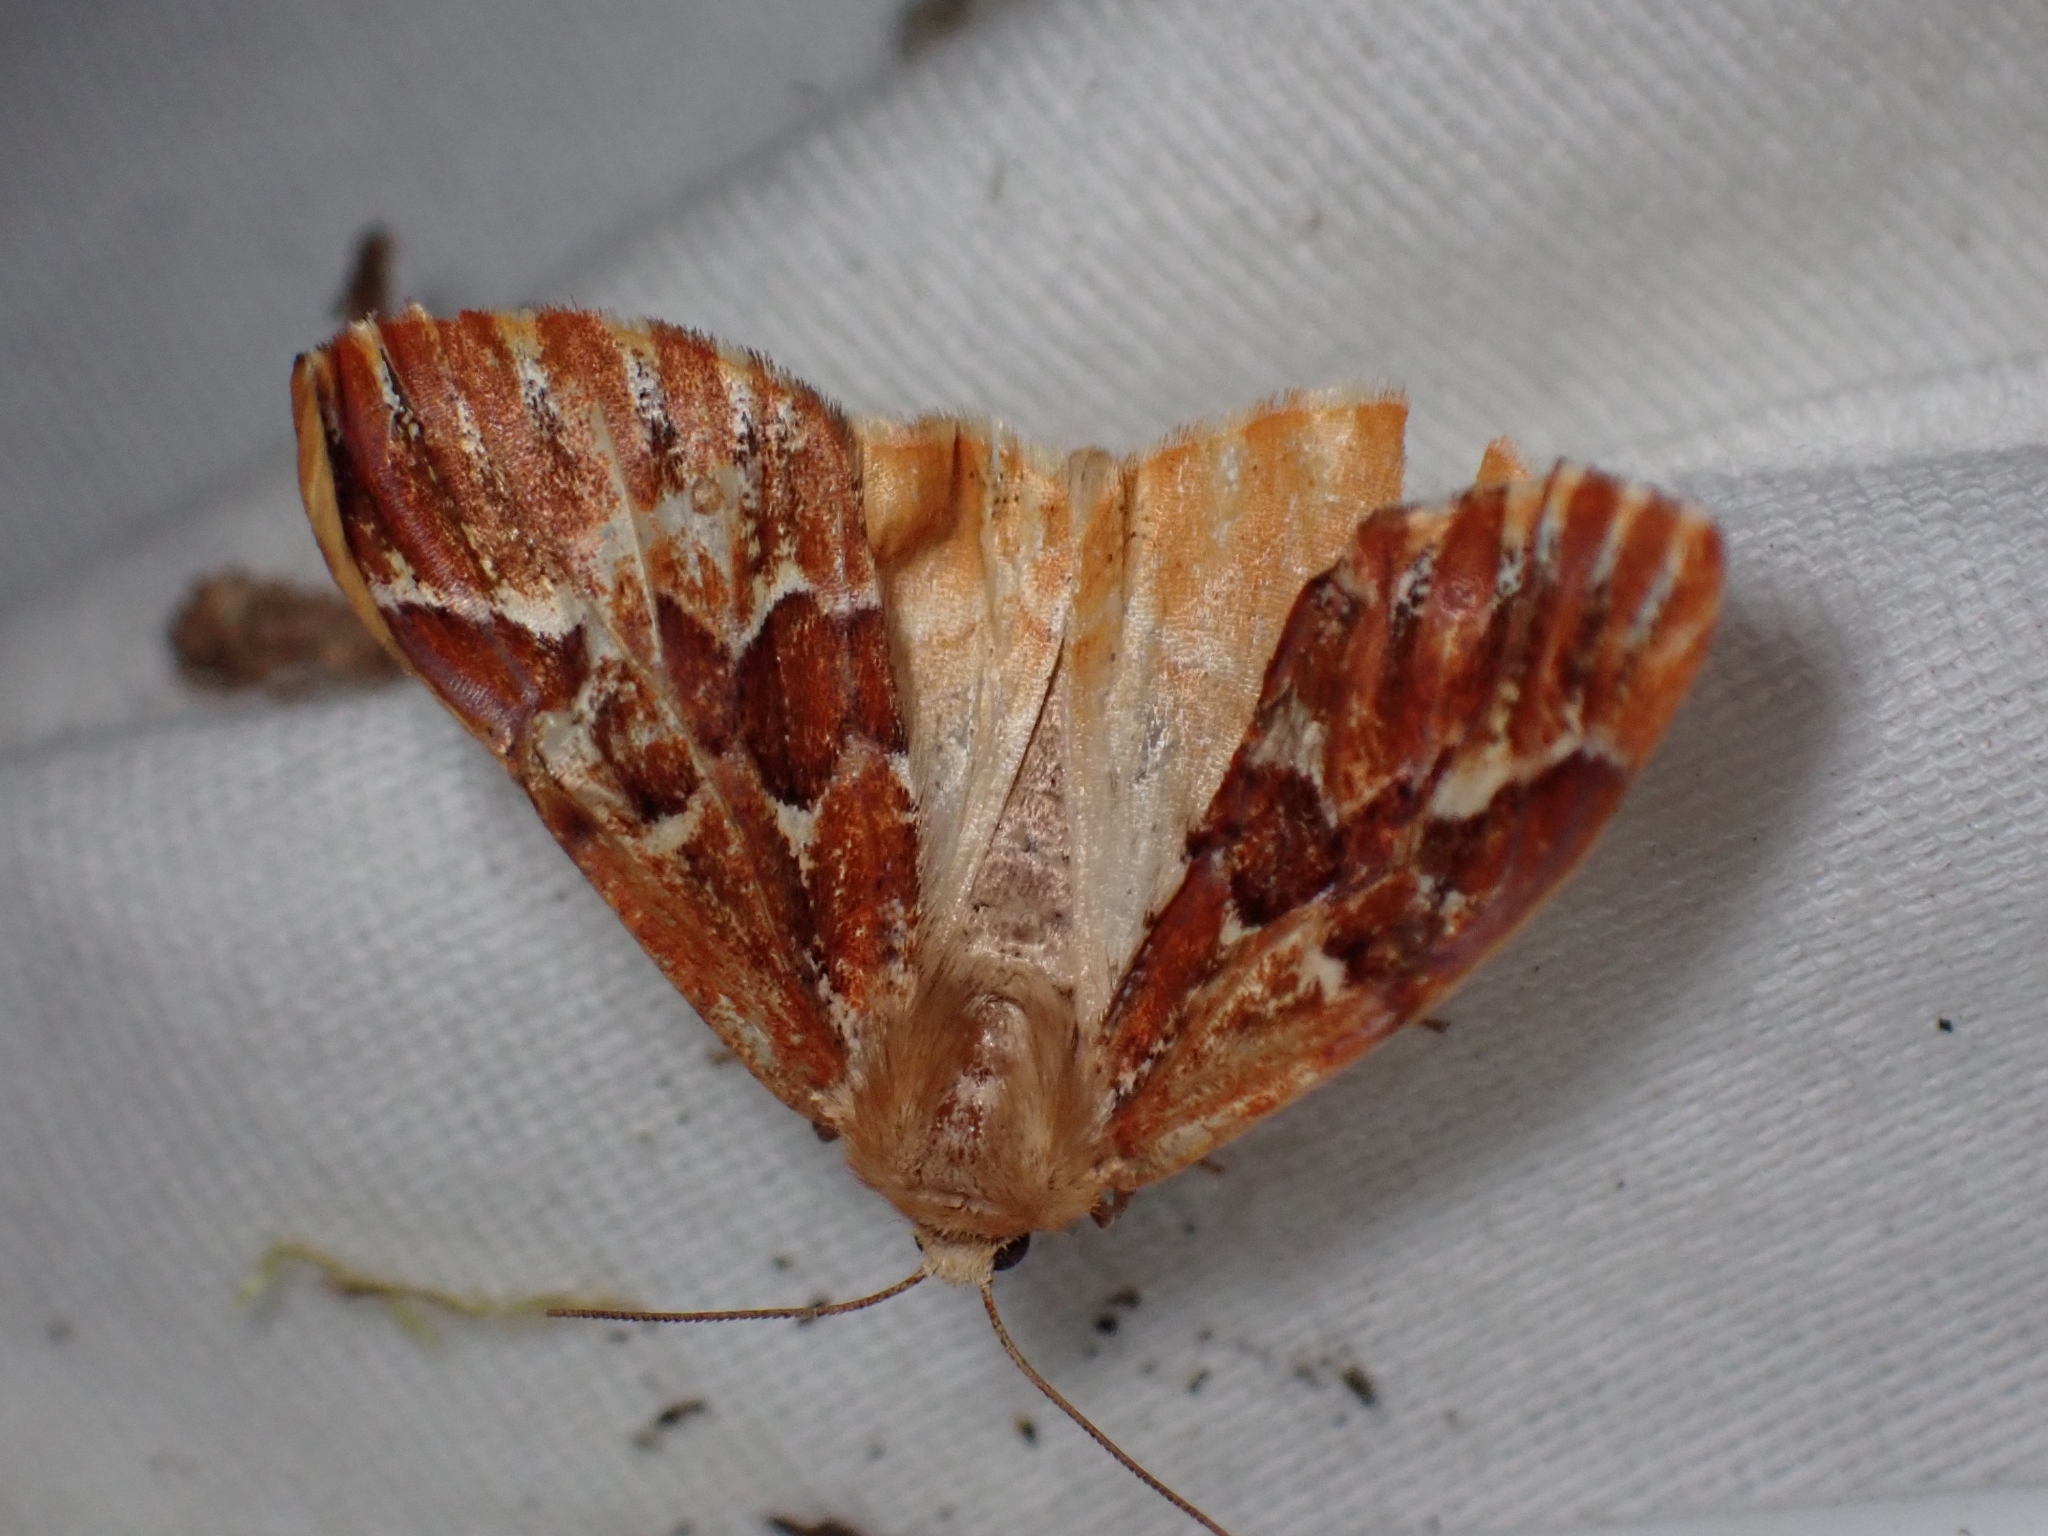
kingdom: Animalia
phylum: Arthropoda
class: Insecta
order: Lepidoptera
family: Geometridae
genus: Caripeta
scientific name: Caripeta aequaliaria
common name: Red girdle moth
